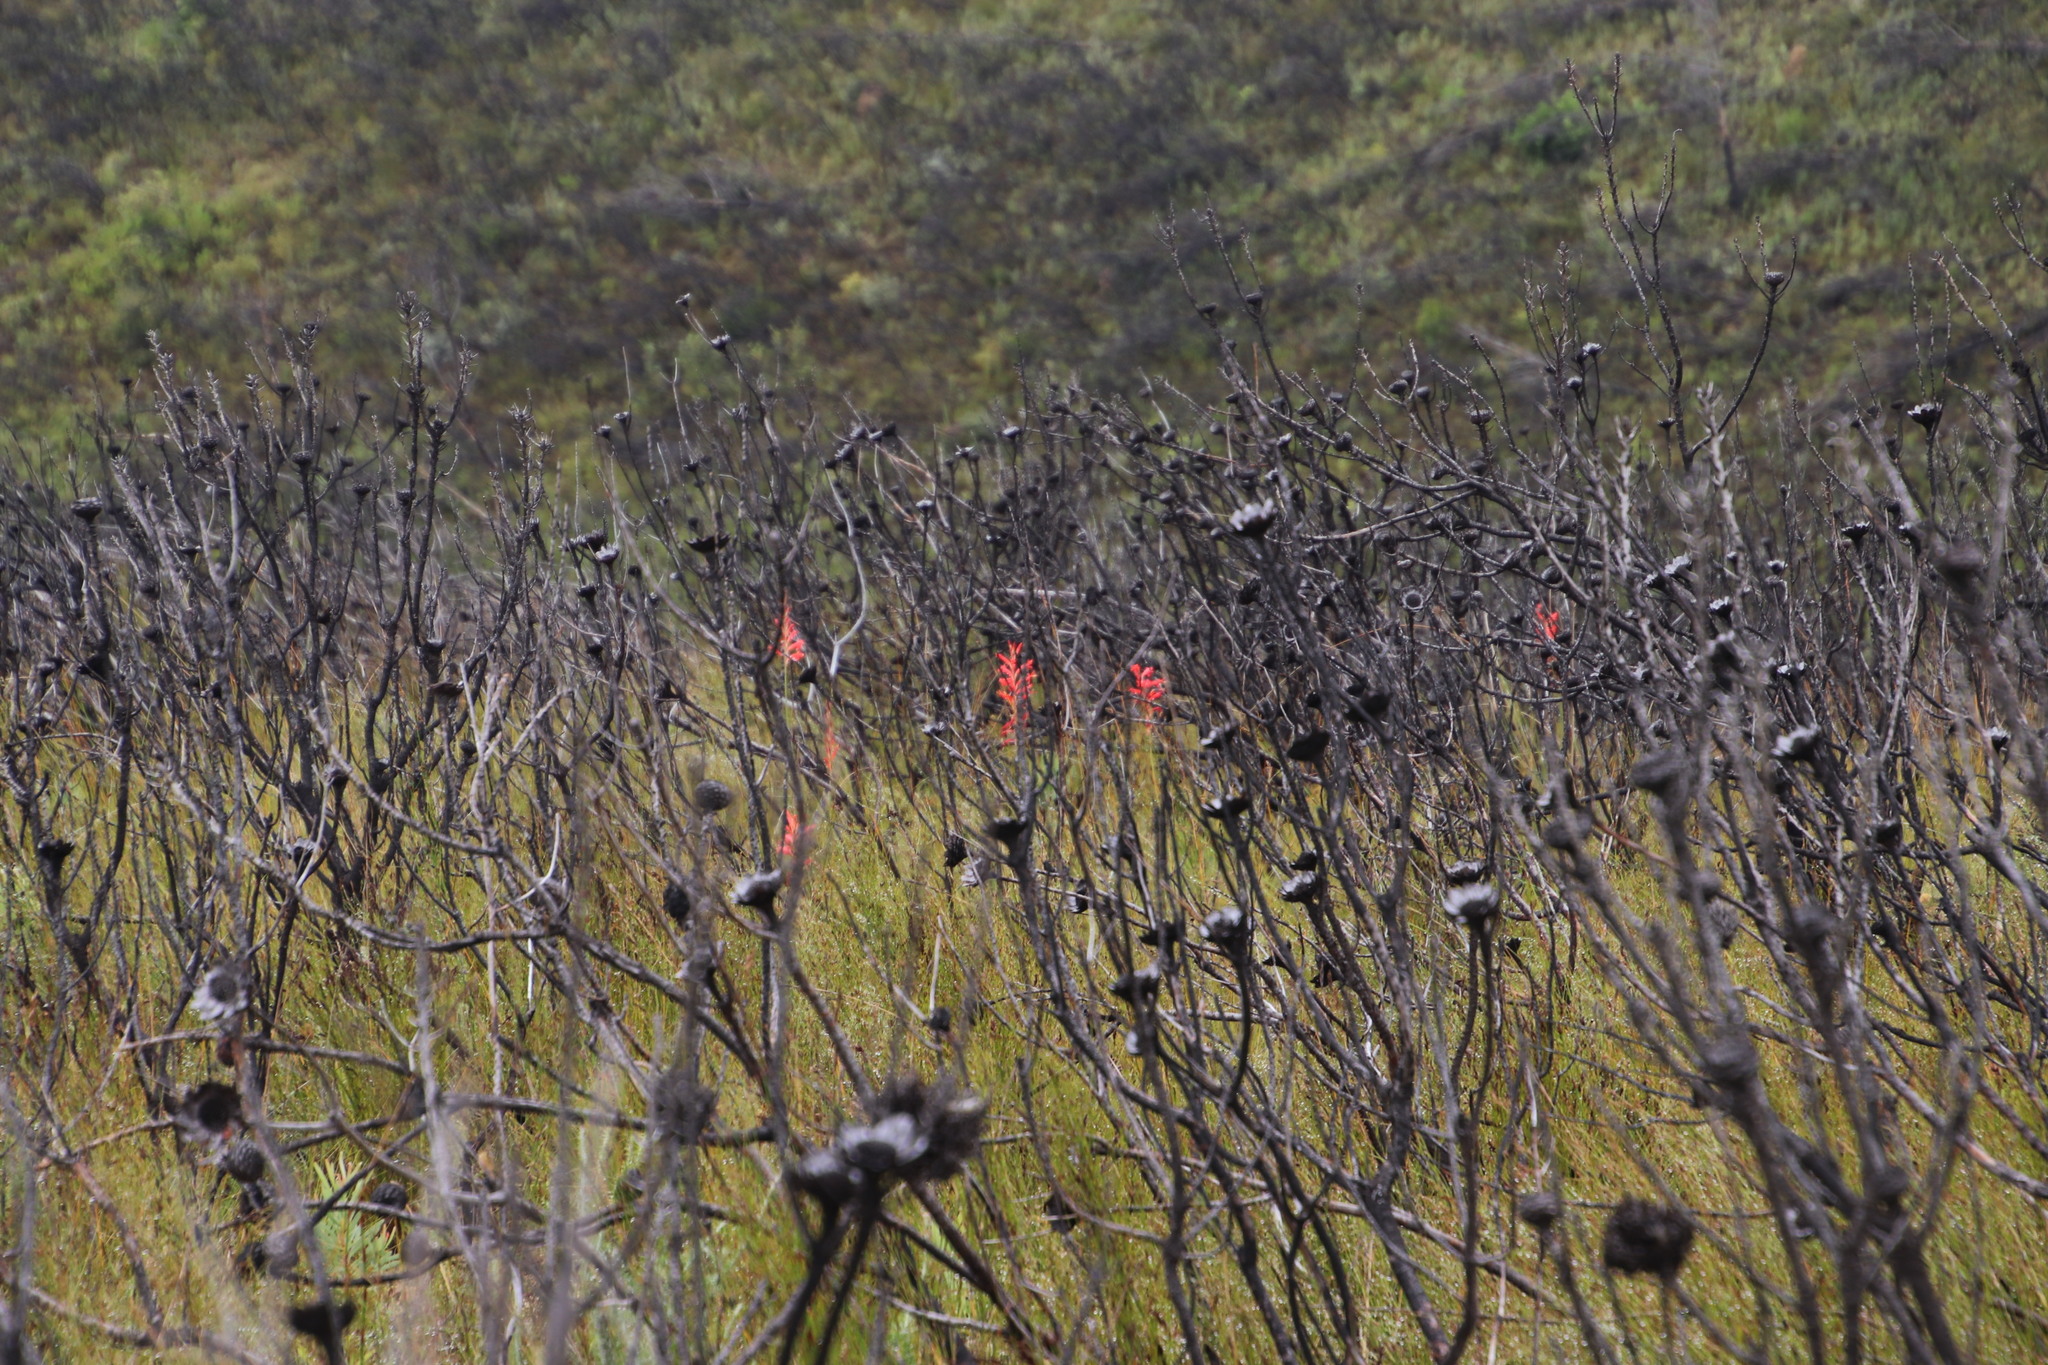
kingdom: Plantae
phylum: Tracheophyta
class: Liliopsida
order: Asparagales
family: Iridaceae
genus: Tritoniopsis
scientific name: Tritoniopsis triticea
